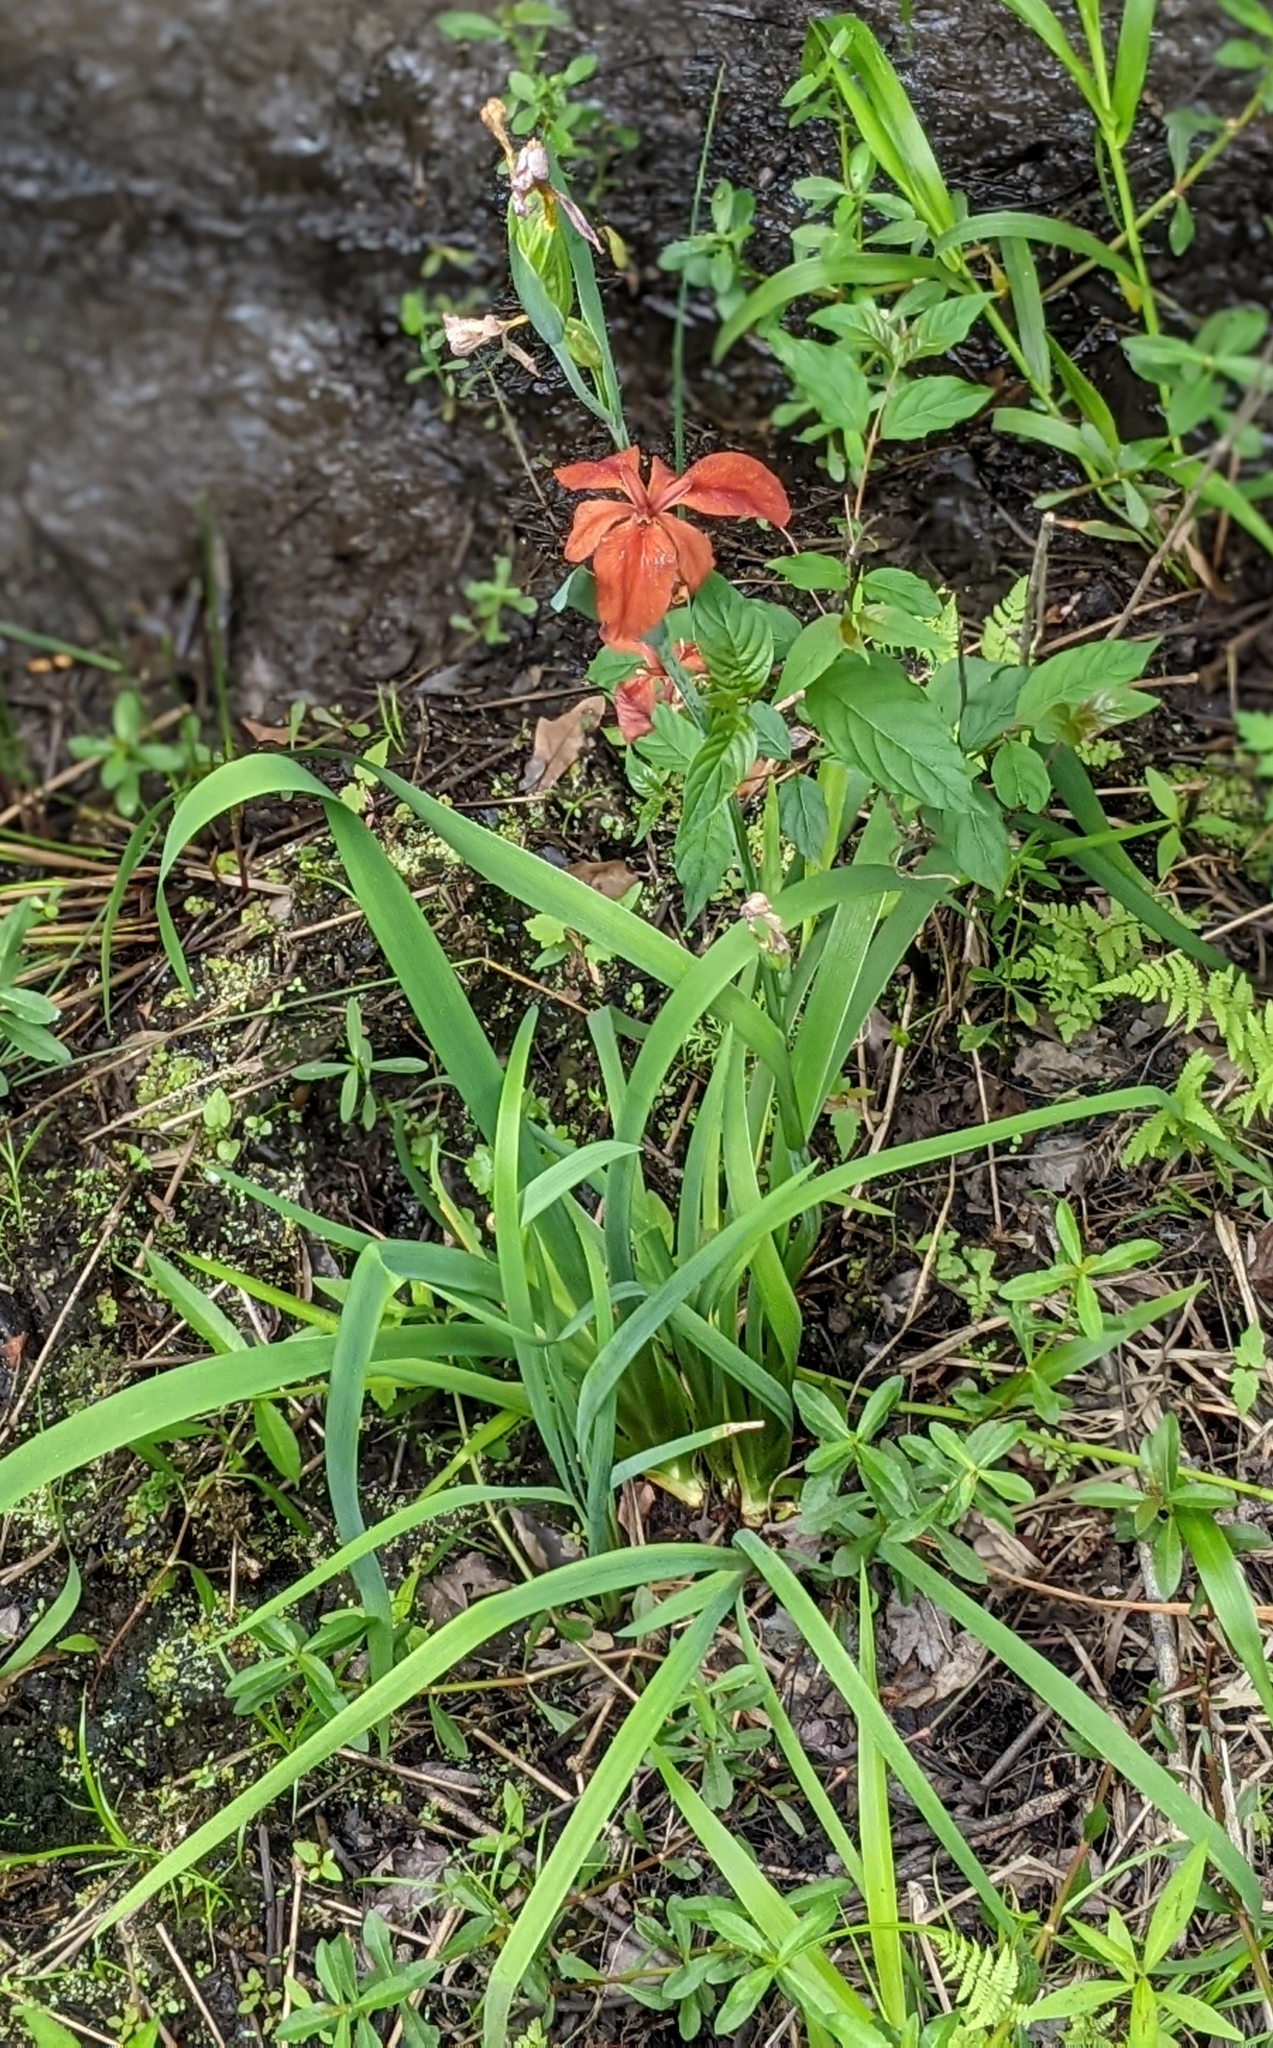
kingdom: Plantae
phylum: Tracheophyta
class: Liliopsida
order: Asparagales
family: Iridaceae
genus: Iris
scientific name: Iris fulva
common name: Copper iris
